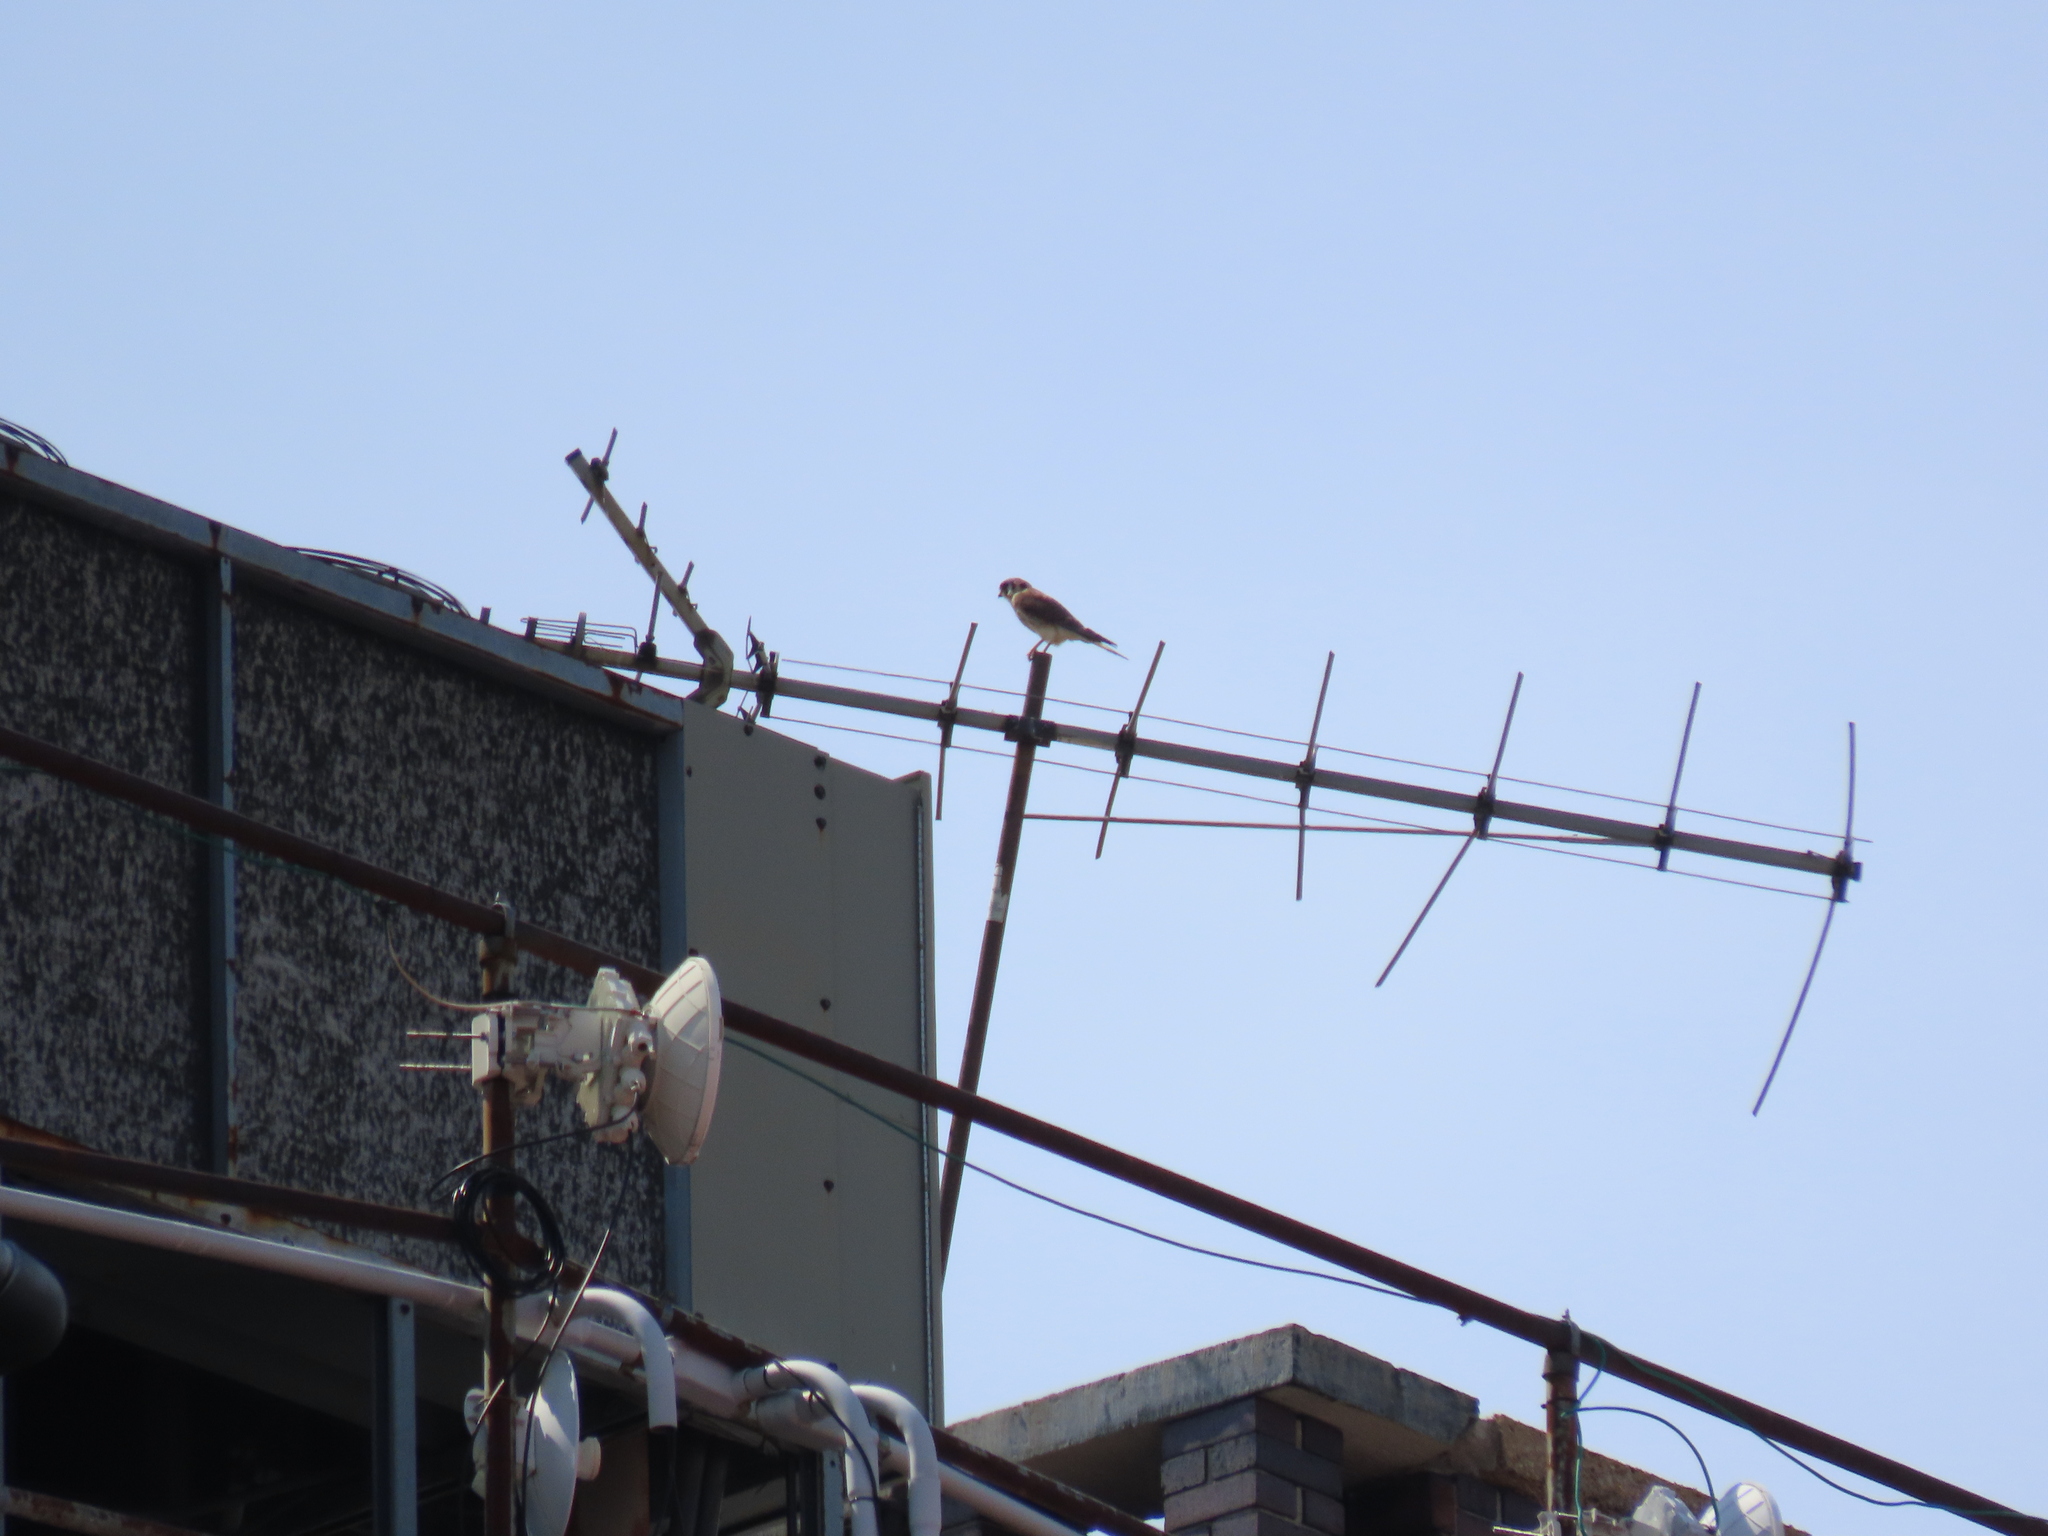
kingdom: Animalia
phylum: Chordata
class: Aves
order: Falconiformes
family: Falconidae
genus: Falco
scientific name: Falco sparverius
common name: American kestrel
